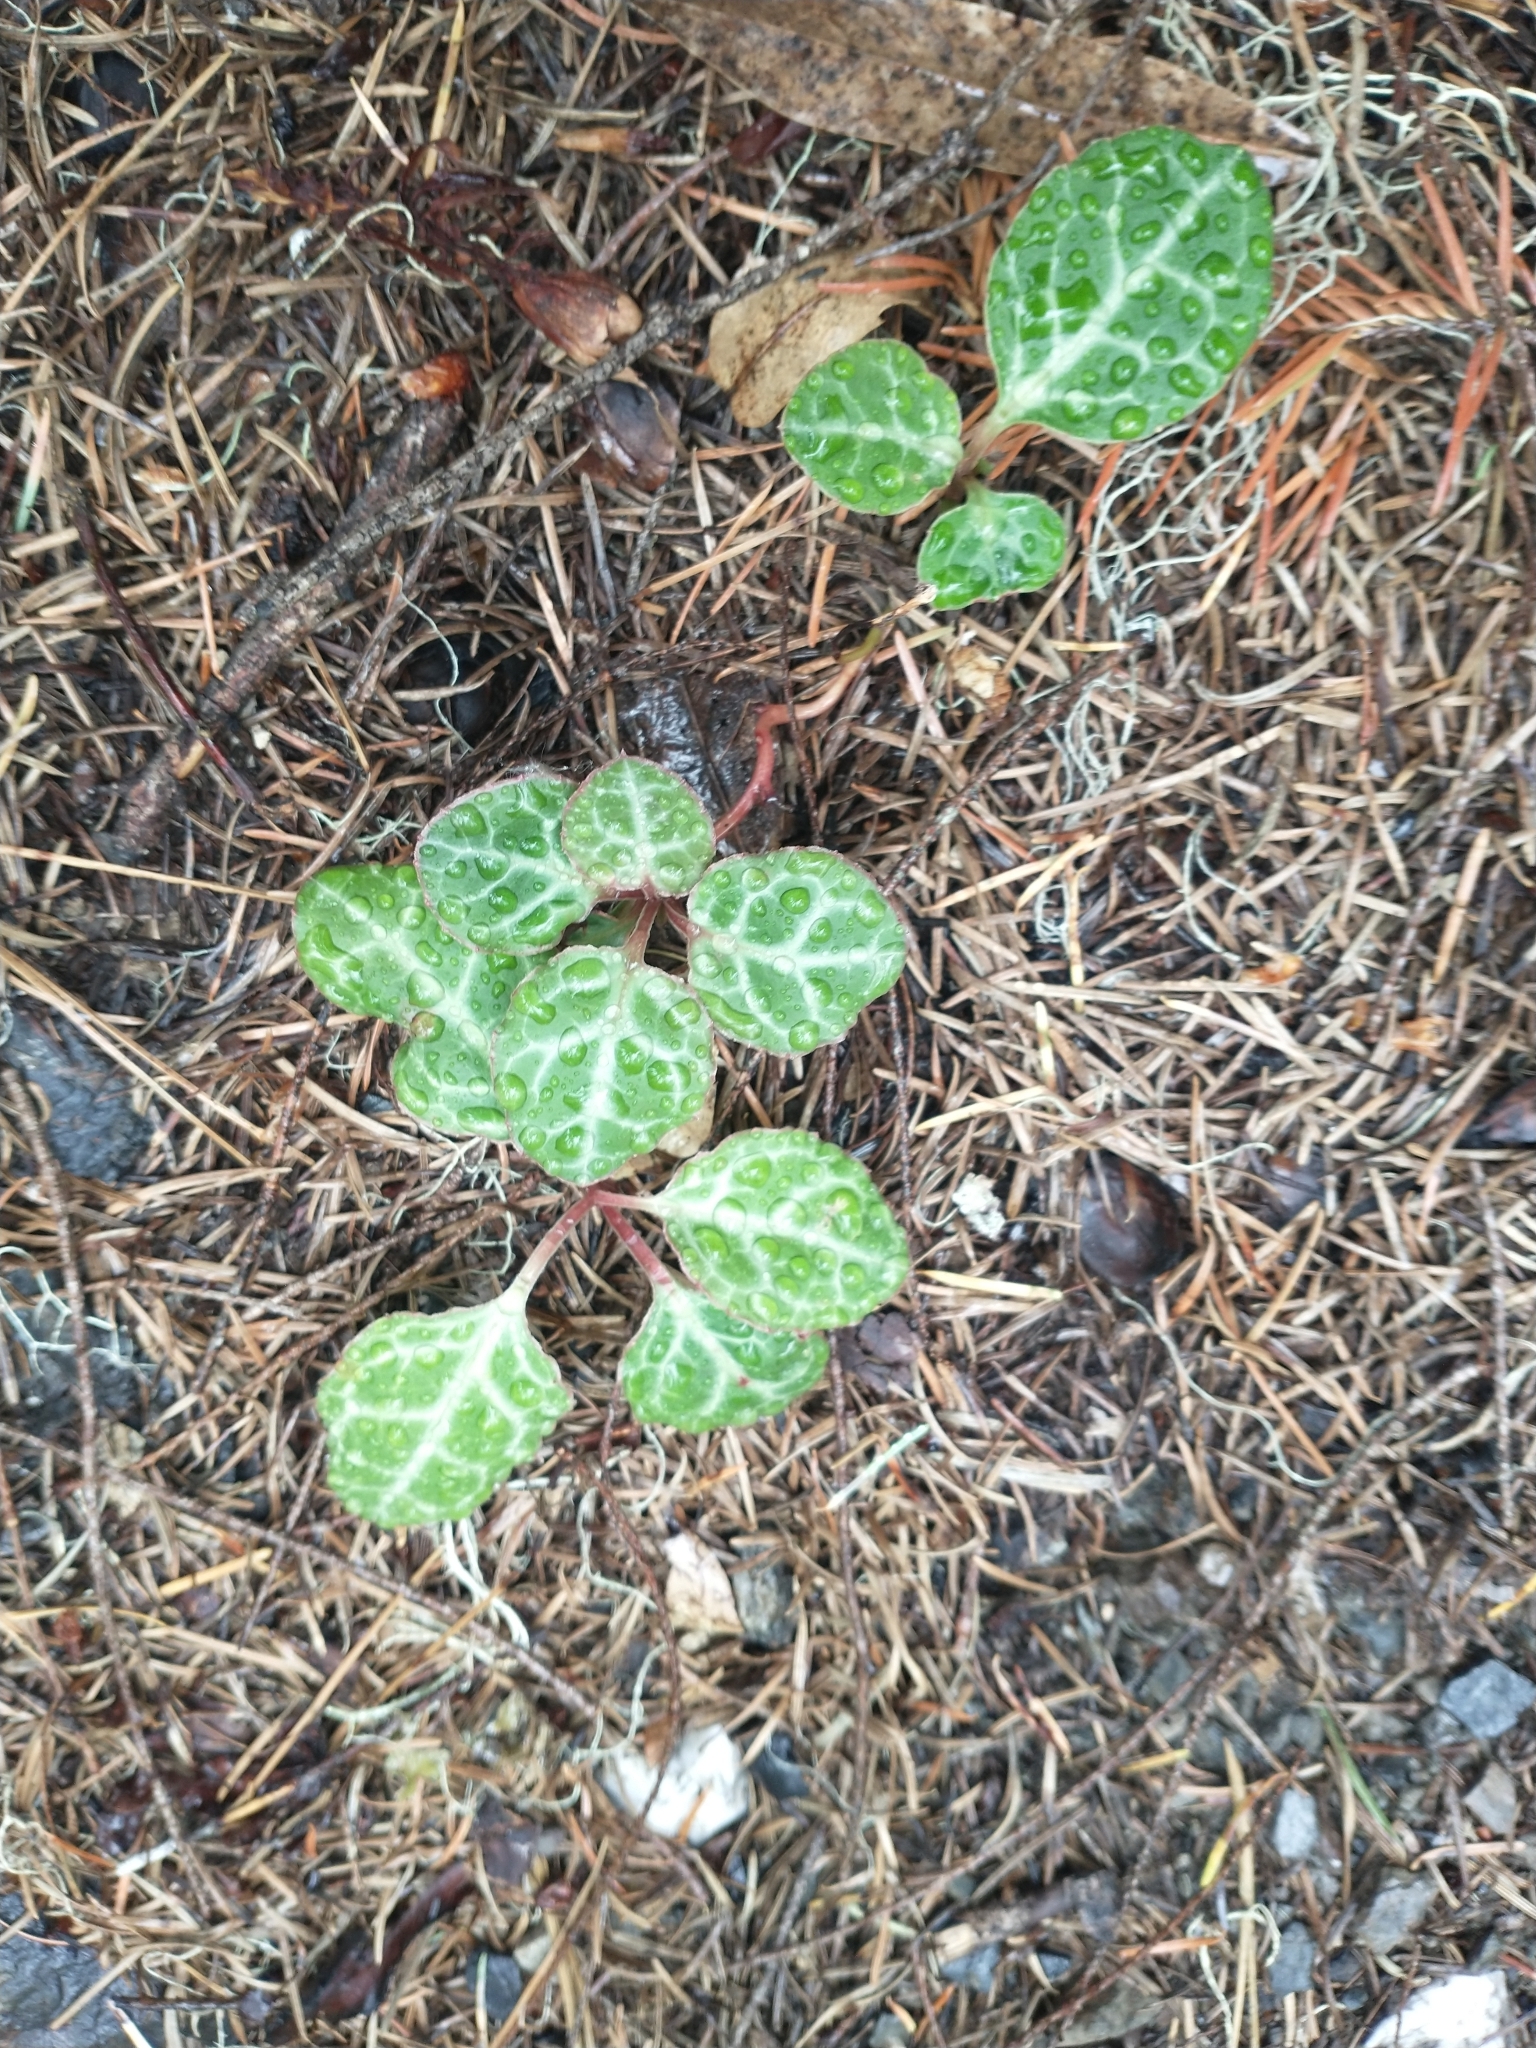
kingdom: Plantae
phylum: Tracheophyta
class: Magnoliopsida
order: Ericales
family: Ericaceae
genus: Pyrola
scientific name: Pyrola picta
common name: White-vein wintergreen
